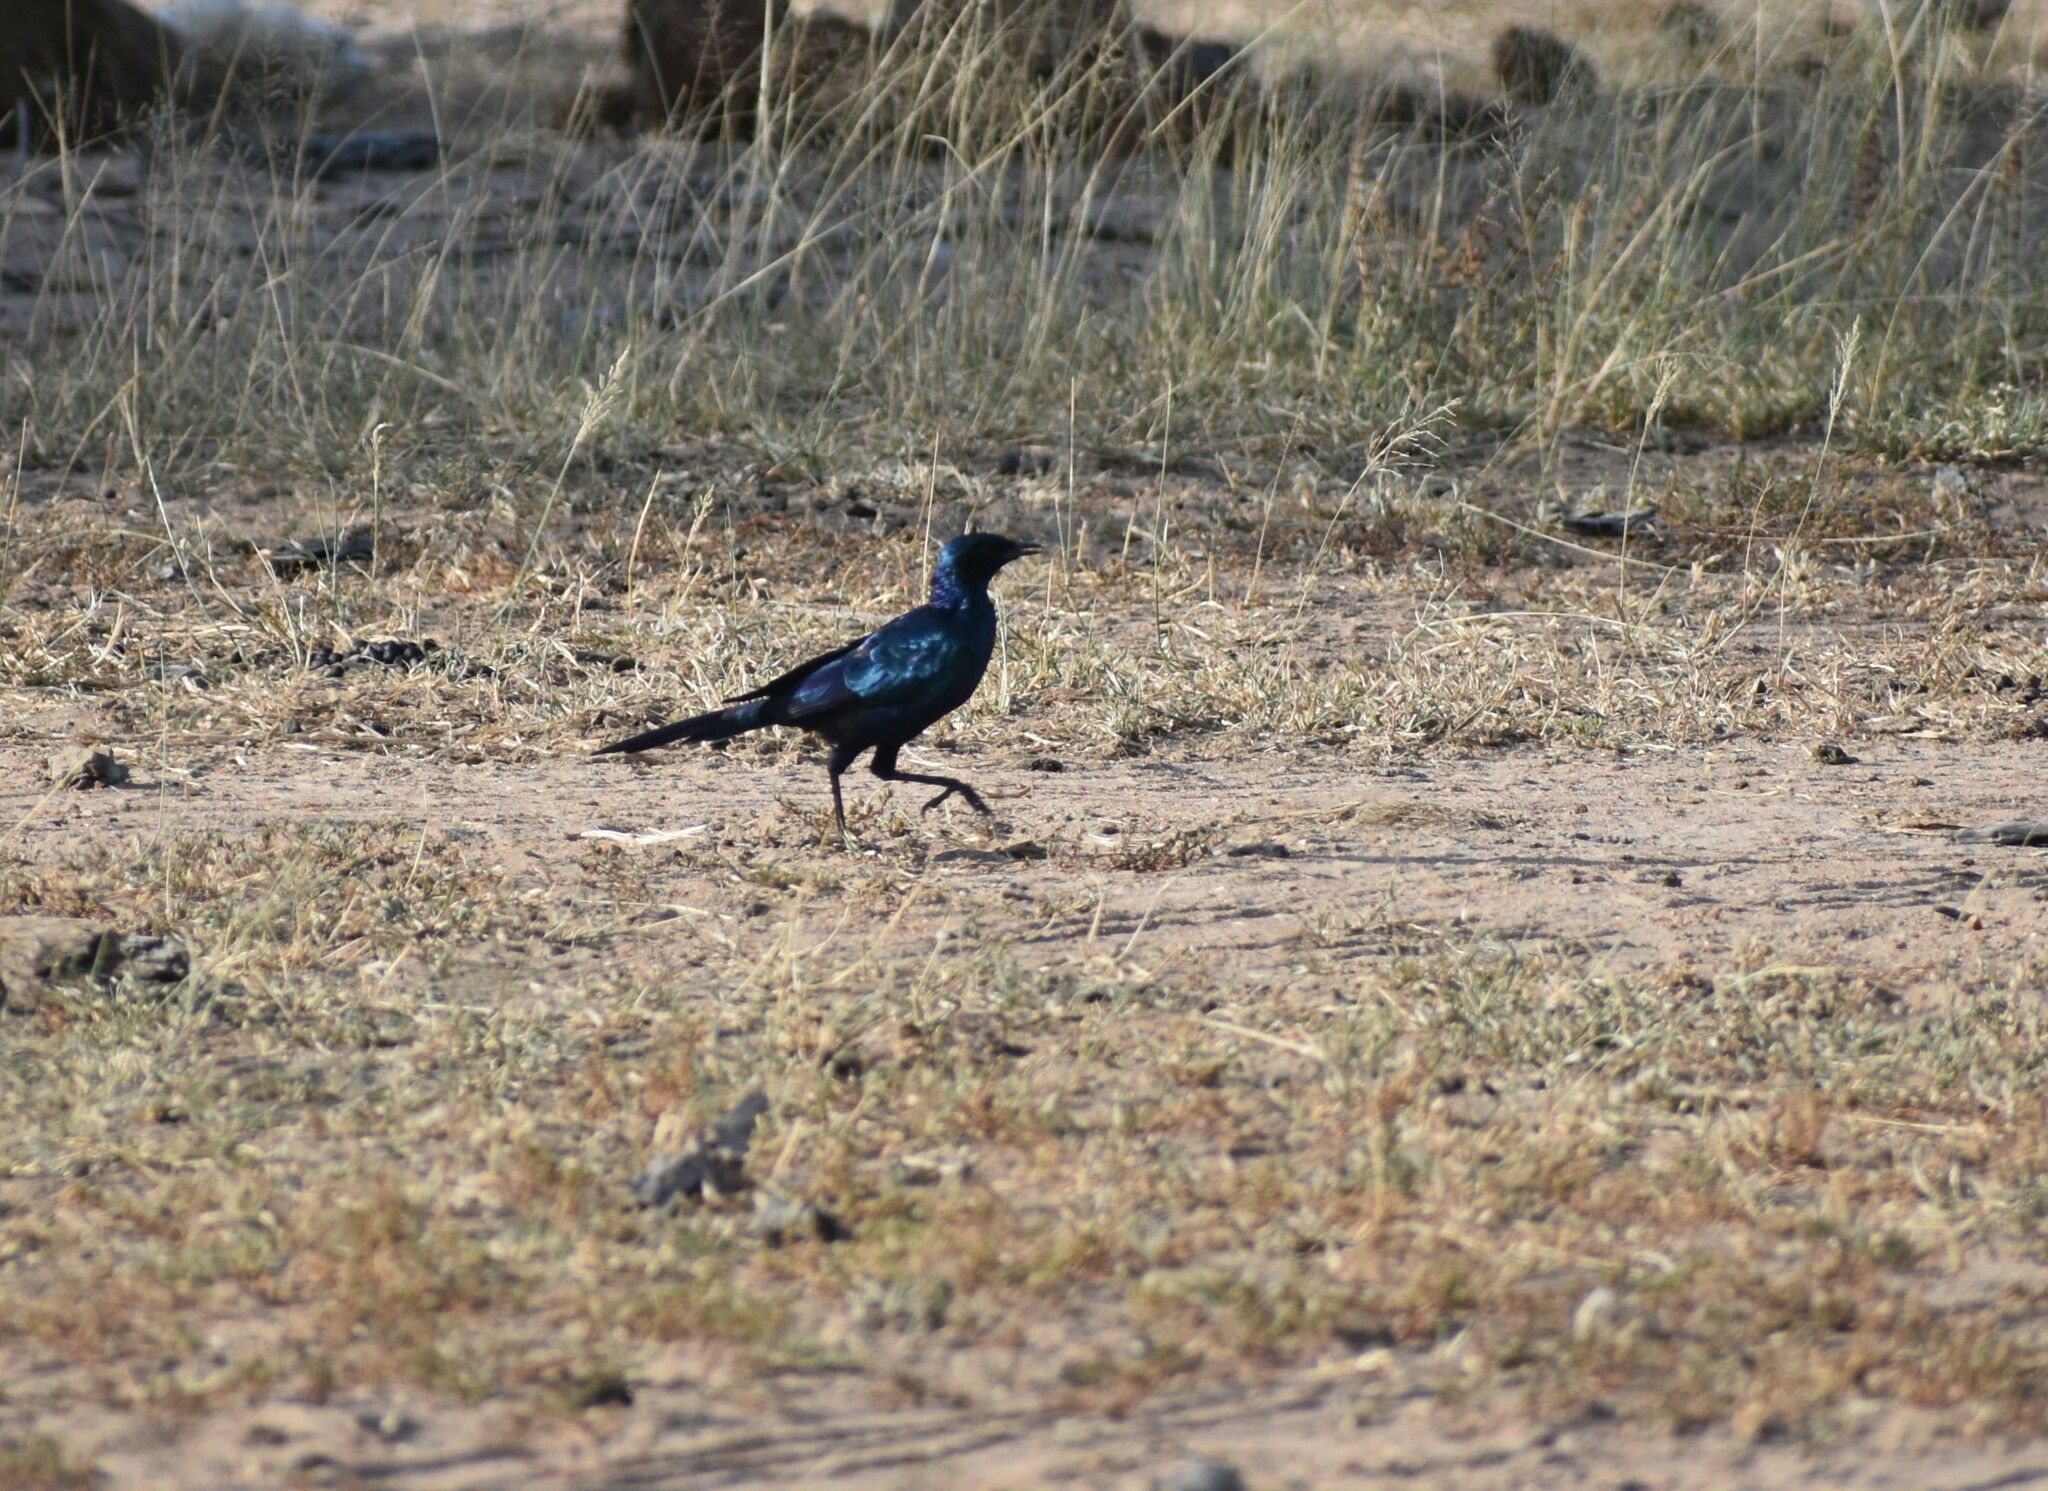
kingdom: Animalia
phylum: Chordata
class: Aves
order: Passeriformes
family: Sturnidae
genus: Lamprotornis
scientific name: Lamprotornis australis
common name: Burchell's starling
